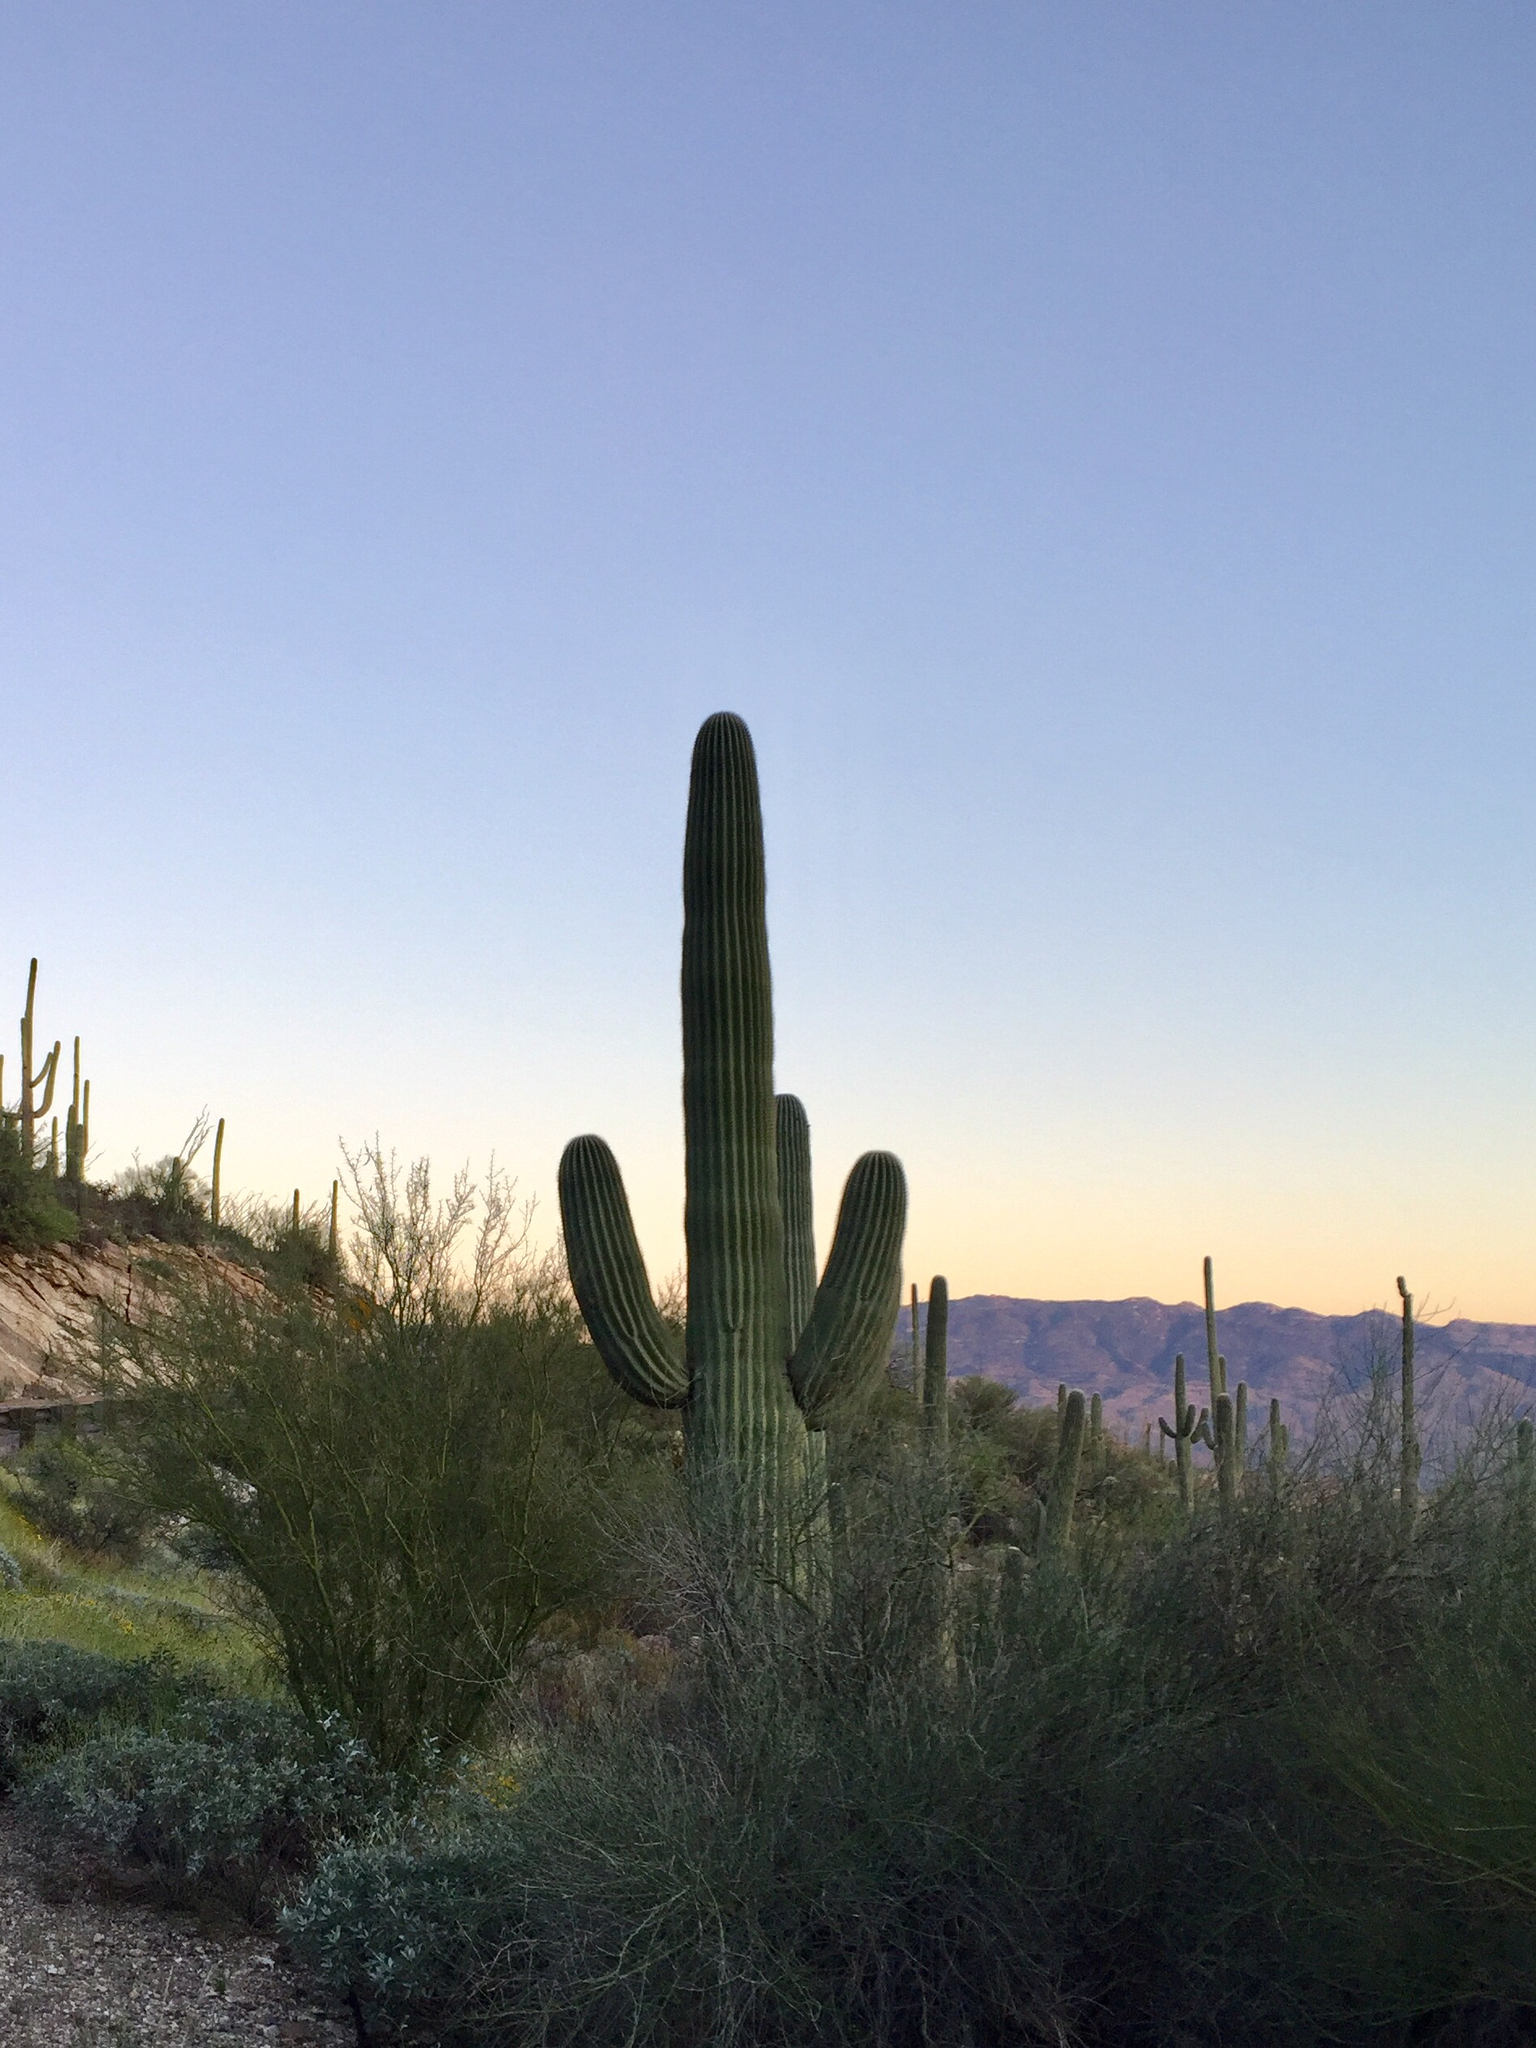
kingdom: Plantae
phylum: Tracheophyta
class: Magnoliopsida
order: Caryophyllales
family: Cactaceae
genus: Carnegiea
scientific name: Carnegiea gigantea
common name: Saguaro
